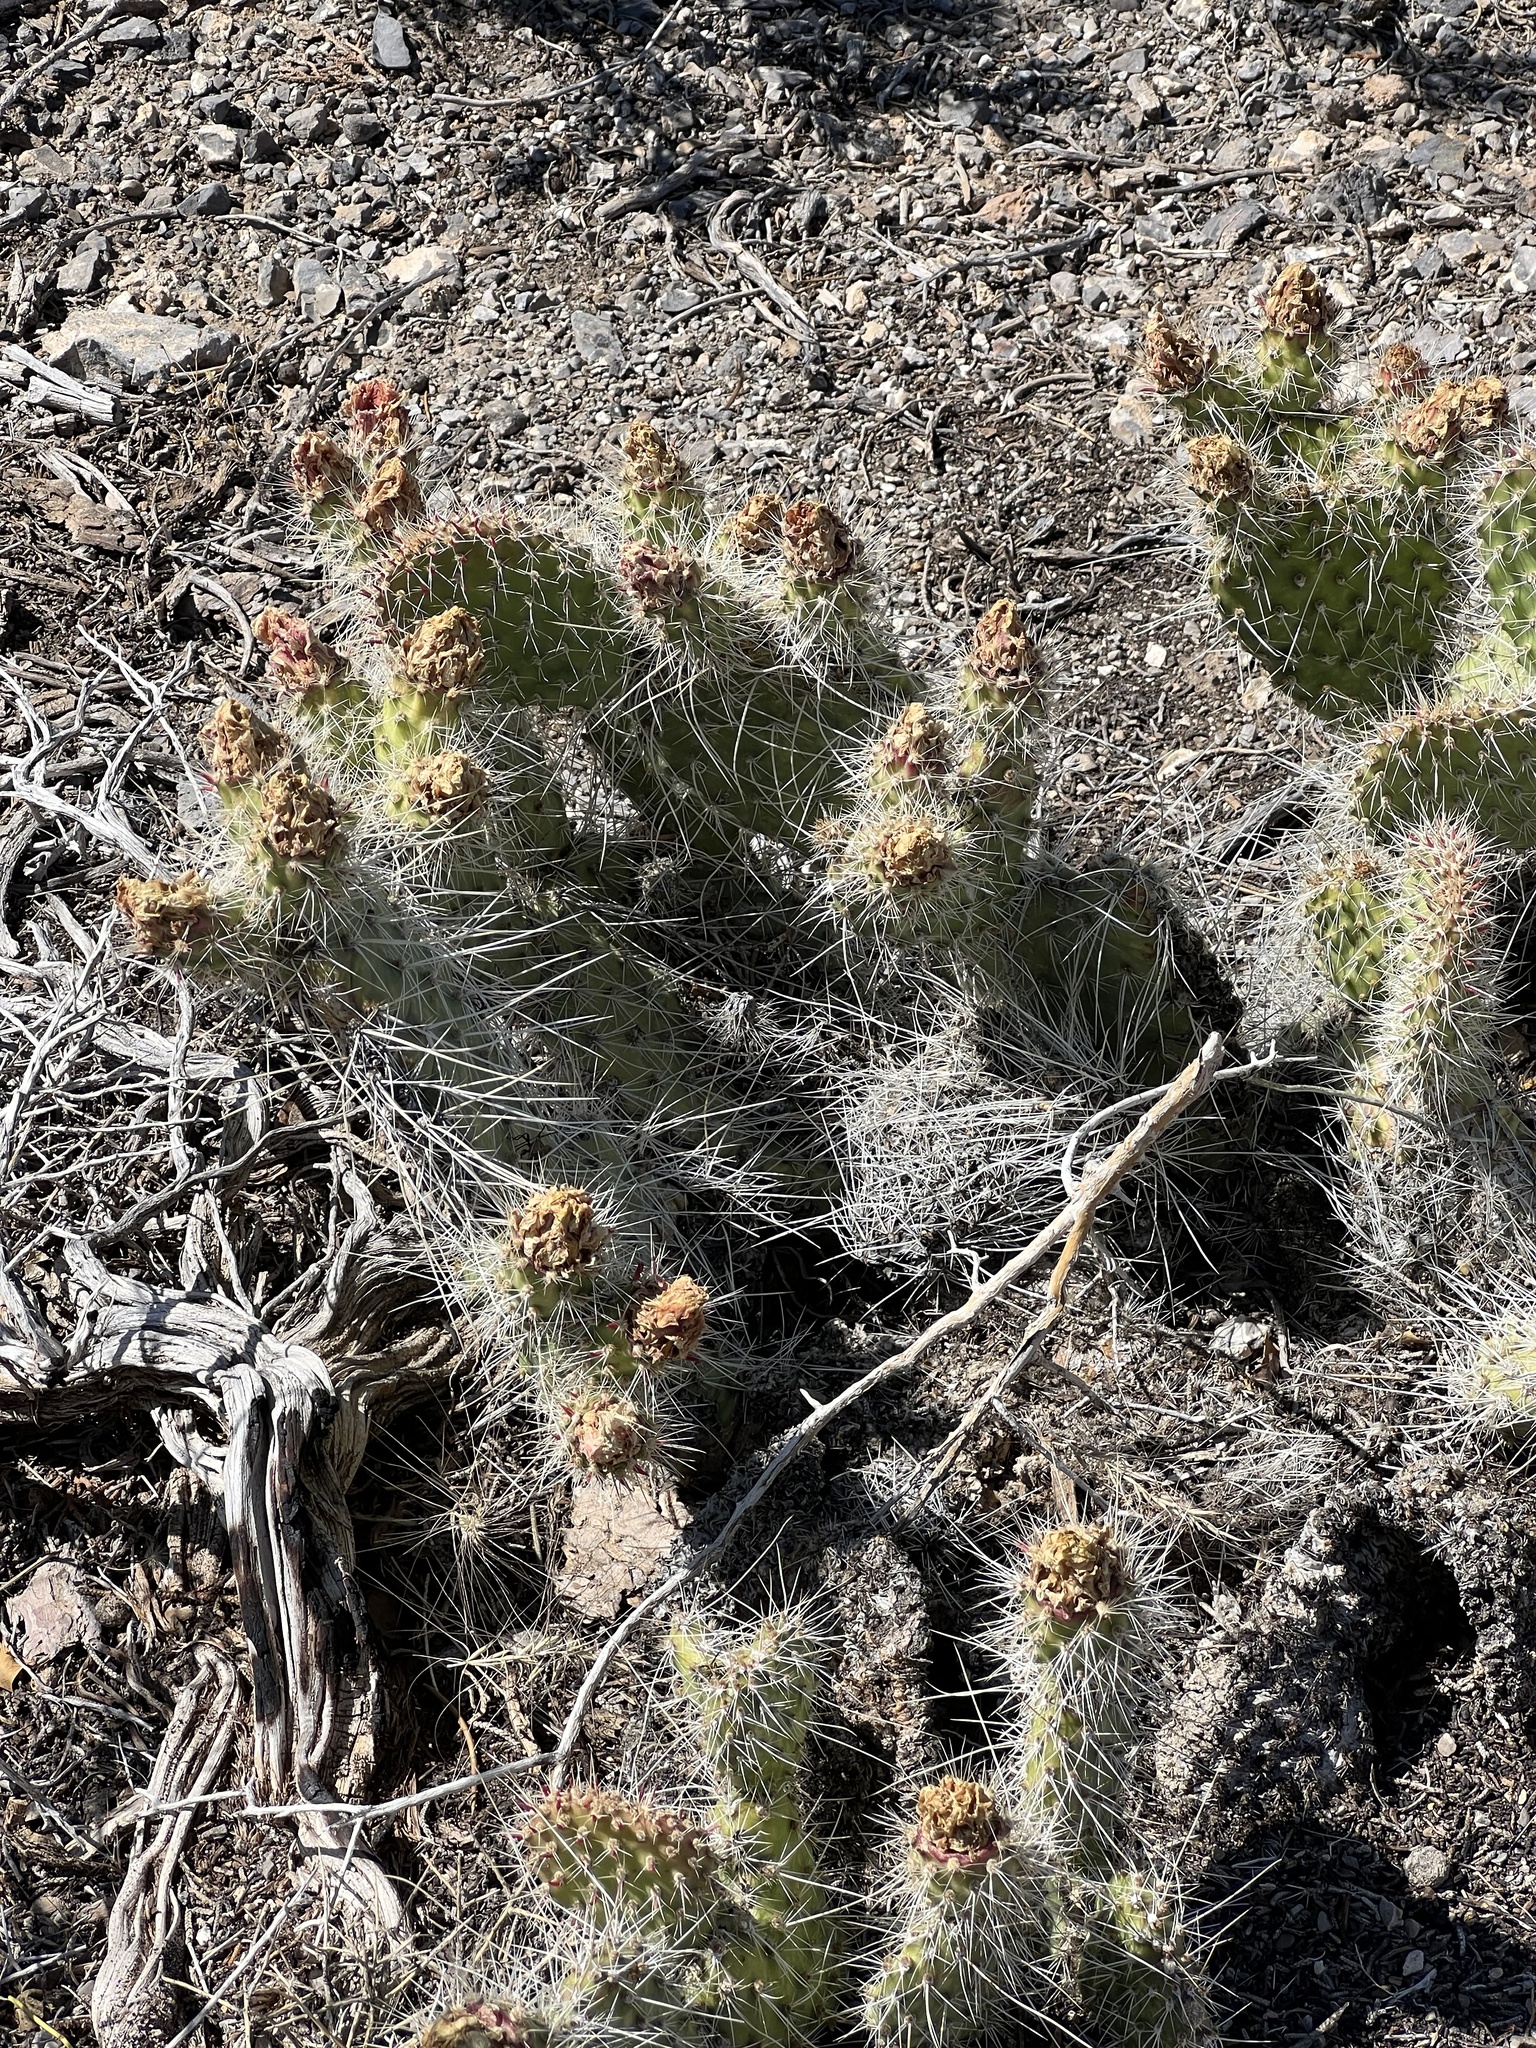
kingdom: Plantae
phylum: Tracheophyta
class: Magnoliopsida
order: Caryophyllales
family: Cactaceae
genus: Opuntia
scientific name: Opuntia polyacantha
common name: Plains prickly-pear
